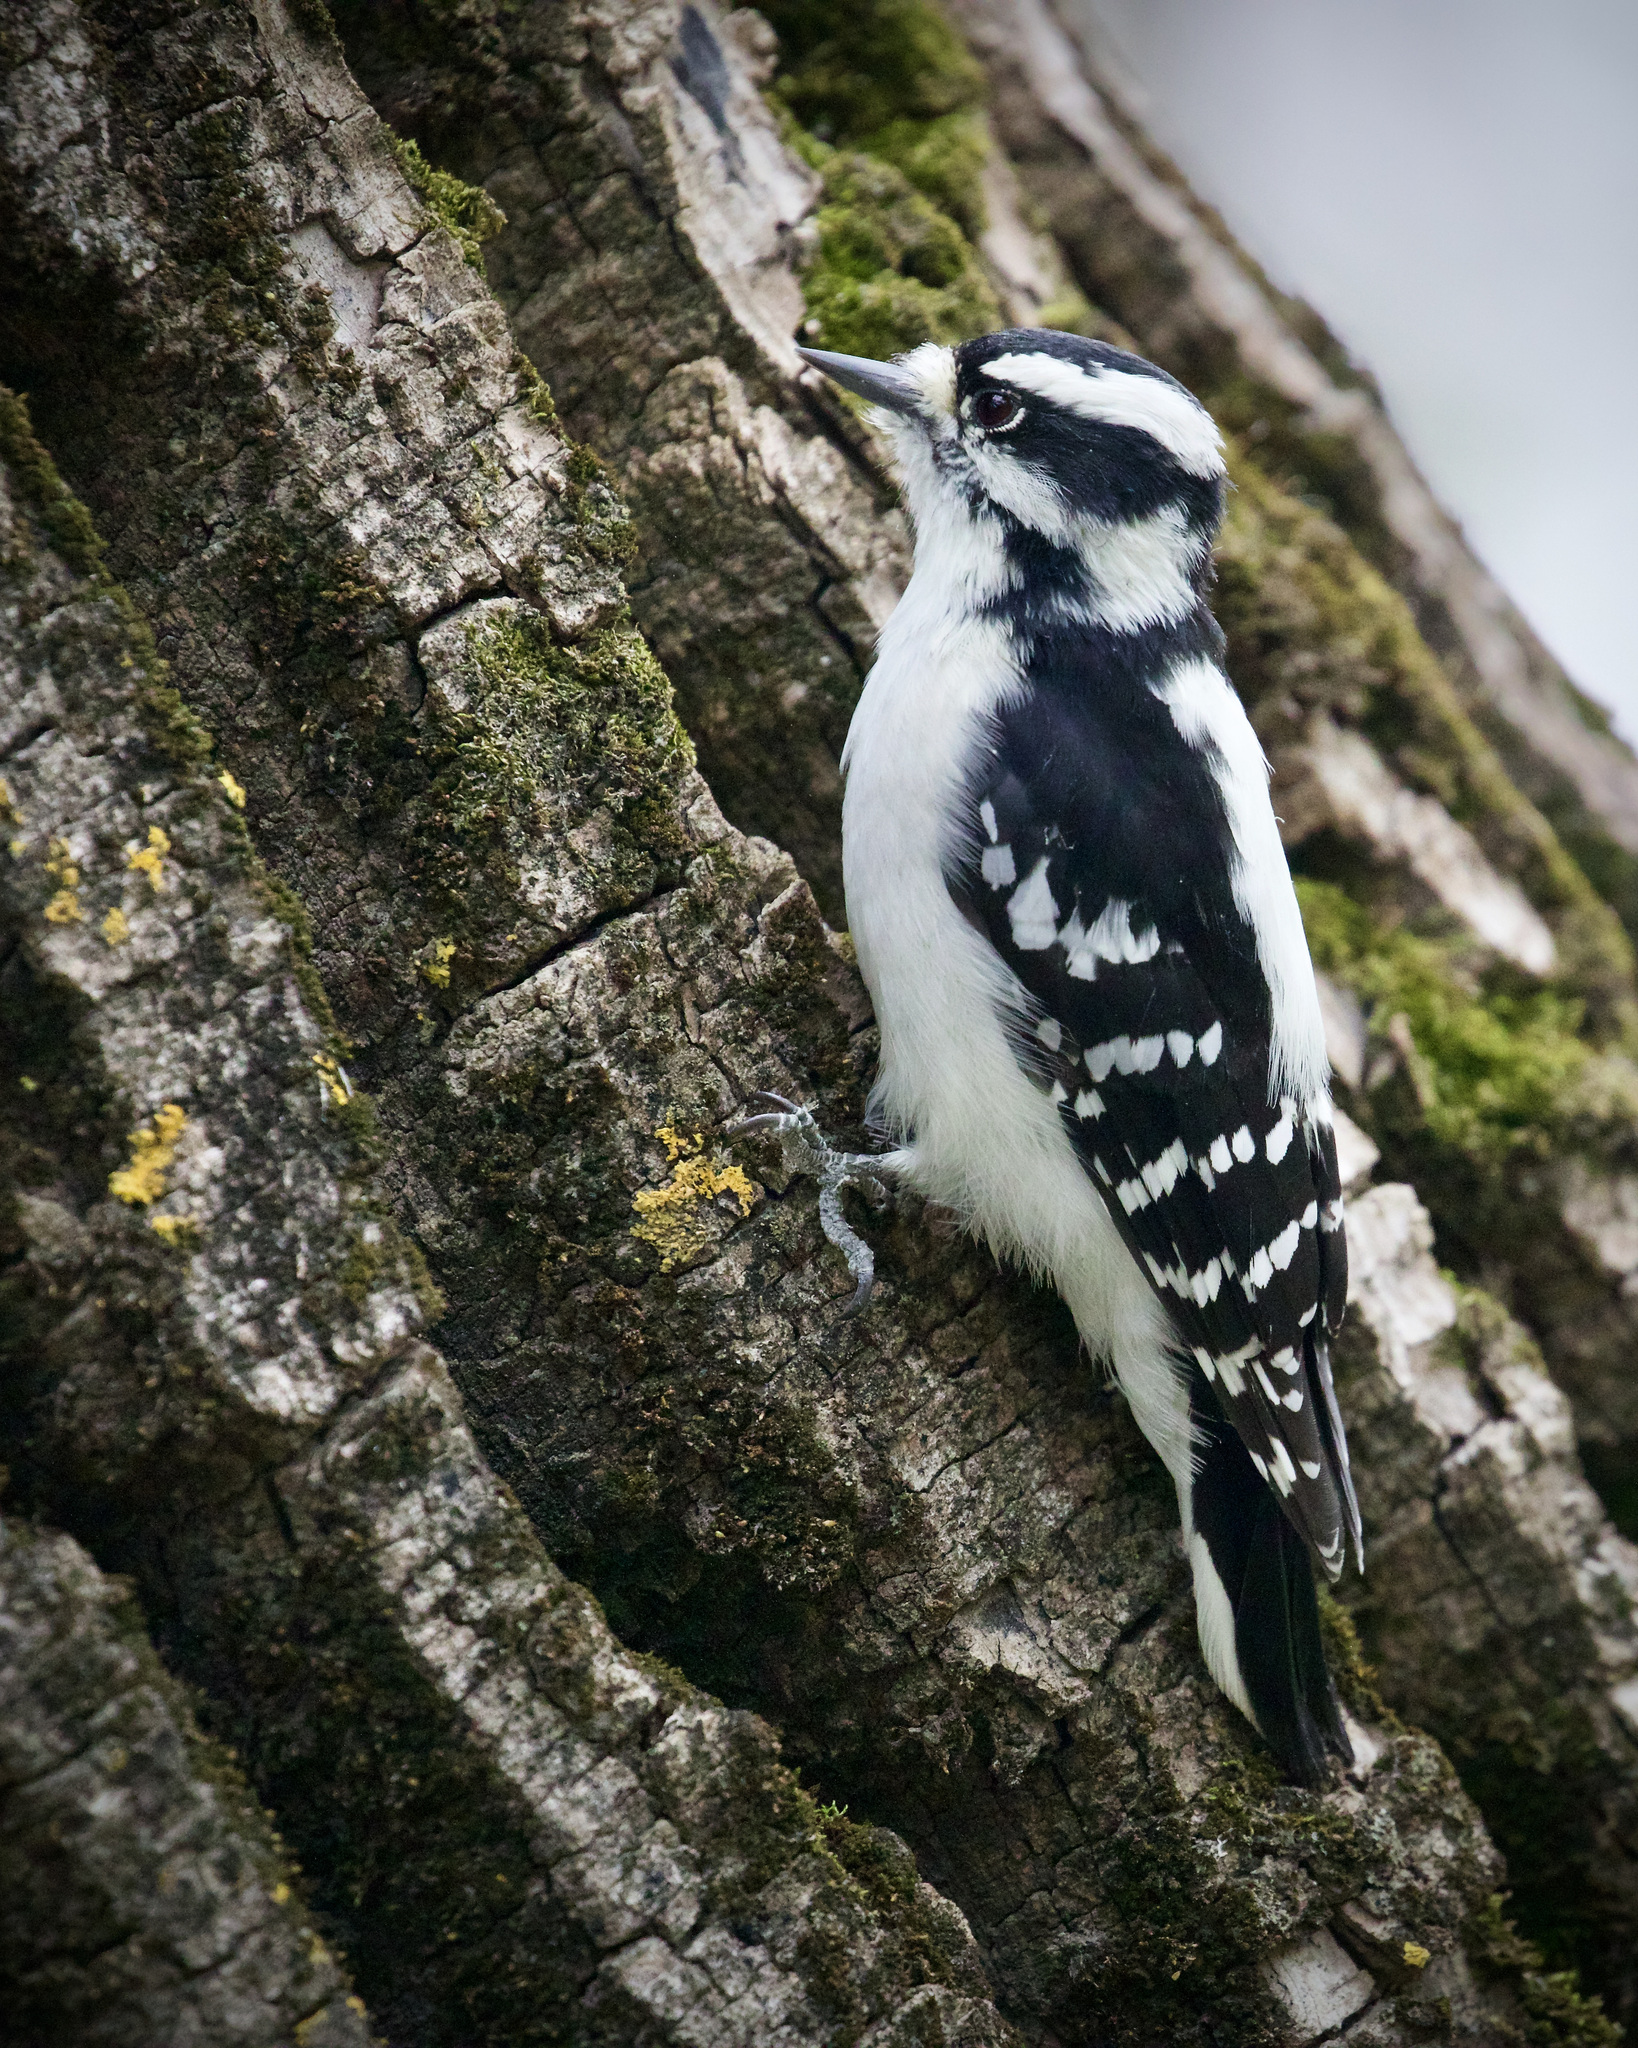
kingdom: Animalia
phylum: Chordata
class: Aves
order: Piciformes
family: Picidae
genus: Dryobates
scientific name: Dryobates pubescens
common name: Downy woodpecker
